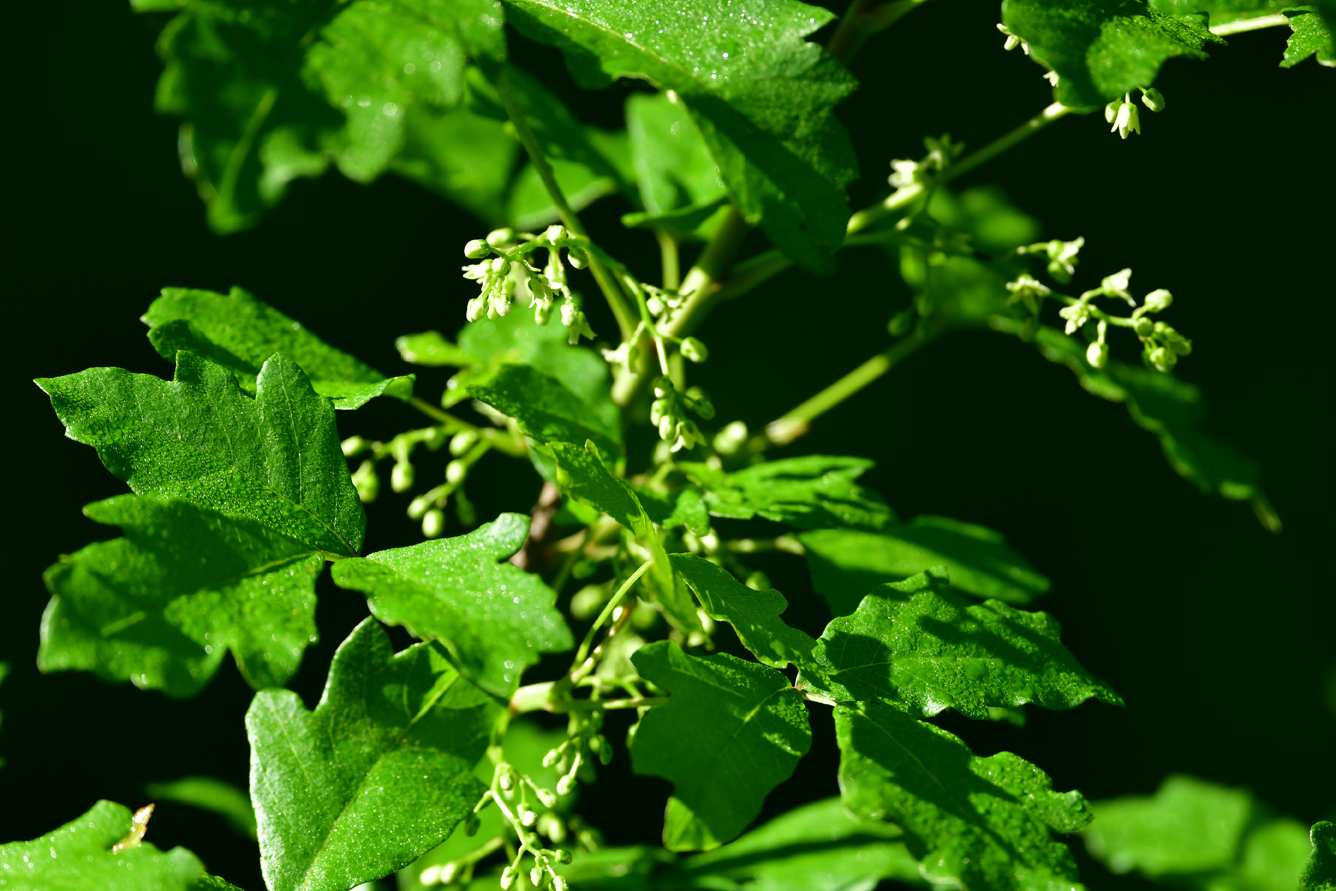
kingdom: Plantae
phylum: Tracheophyta
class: Magnoliopsida
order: Sapindales
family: Anacardiaceae
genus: Rhus
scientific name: Rhus aromatica
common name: Aromatic sumac
